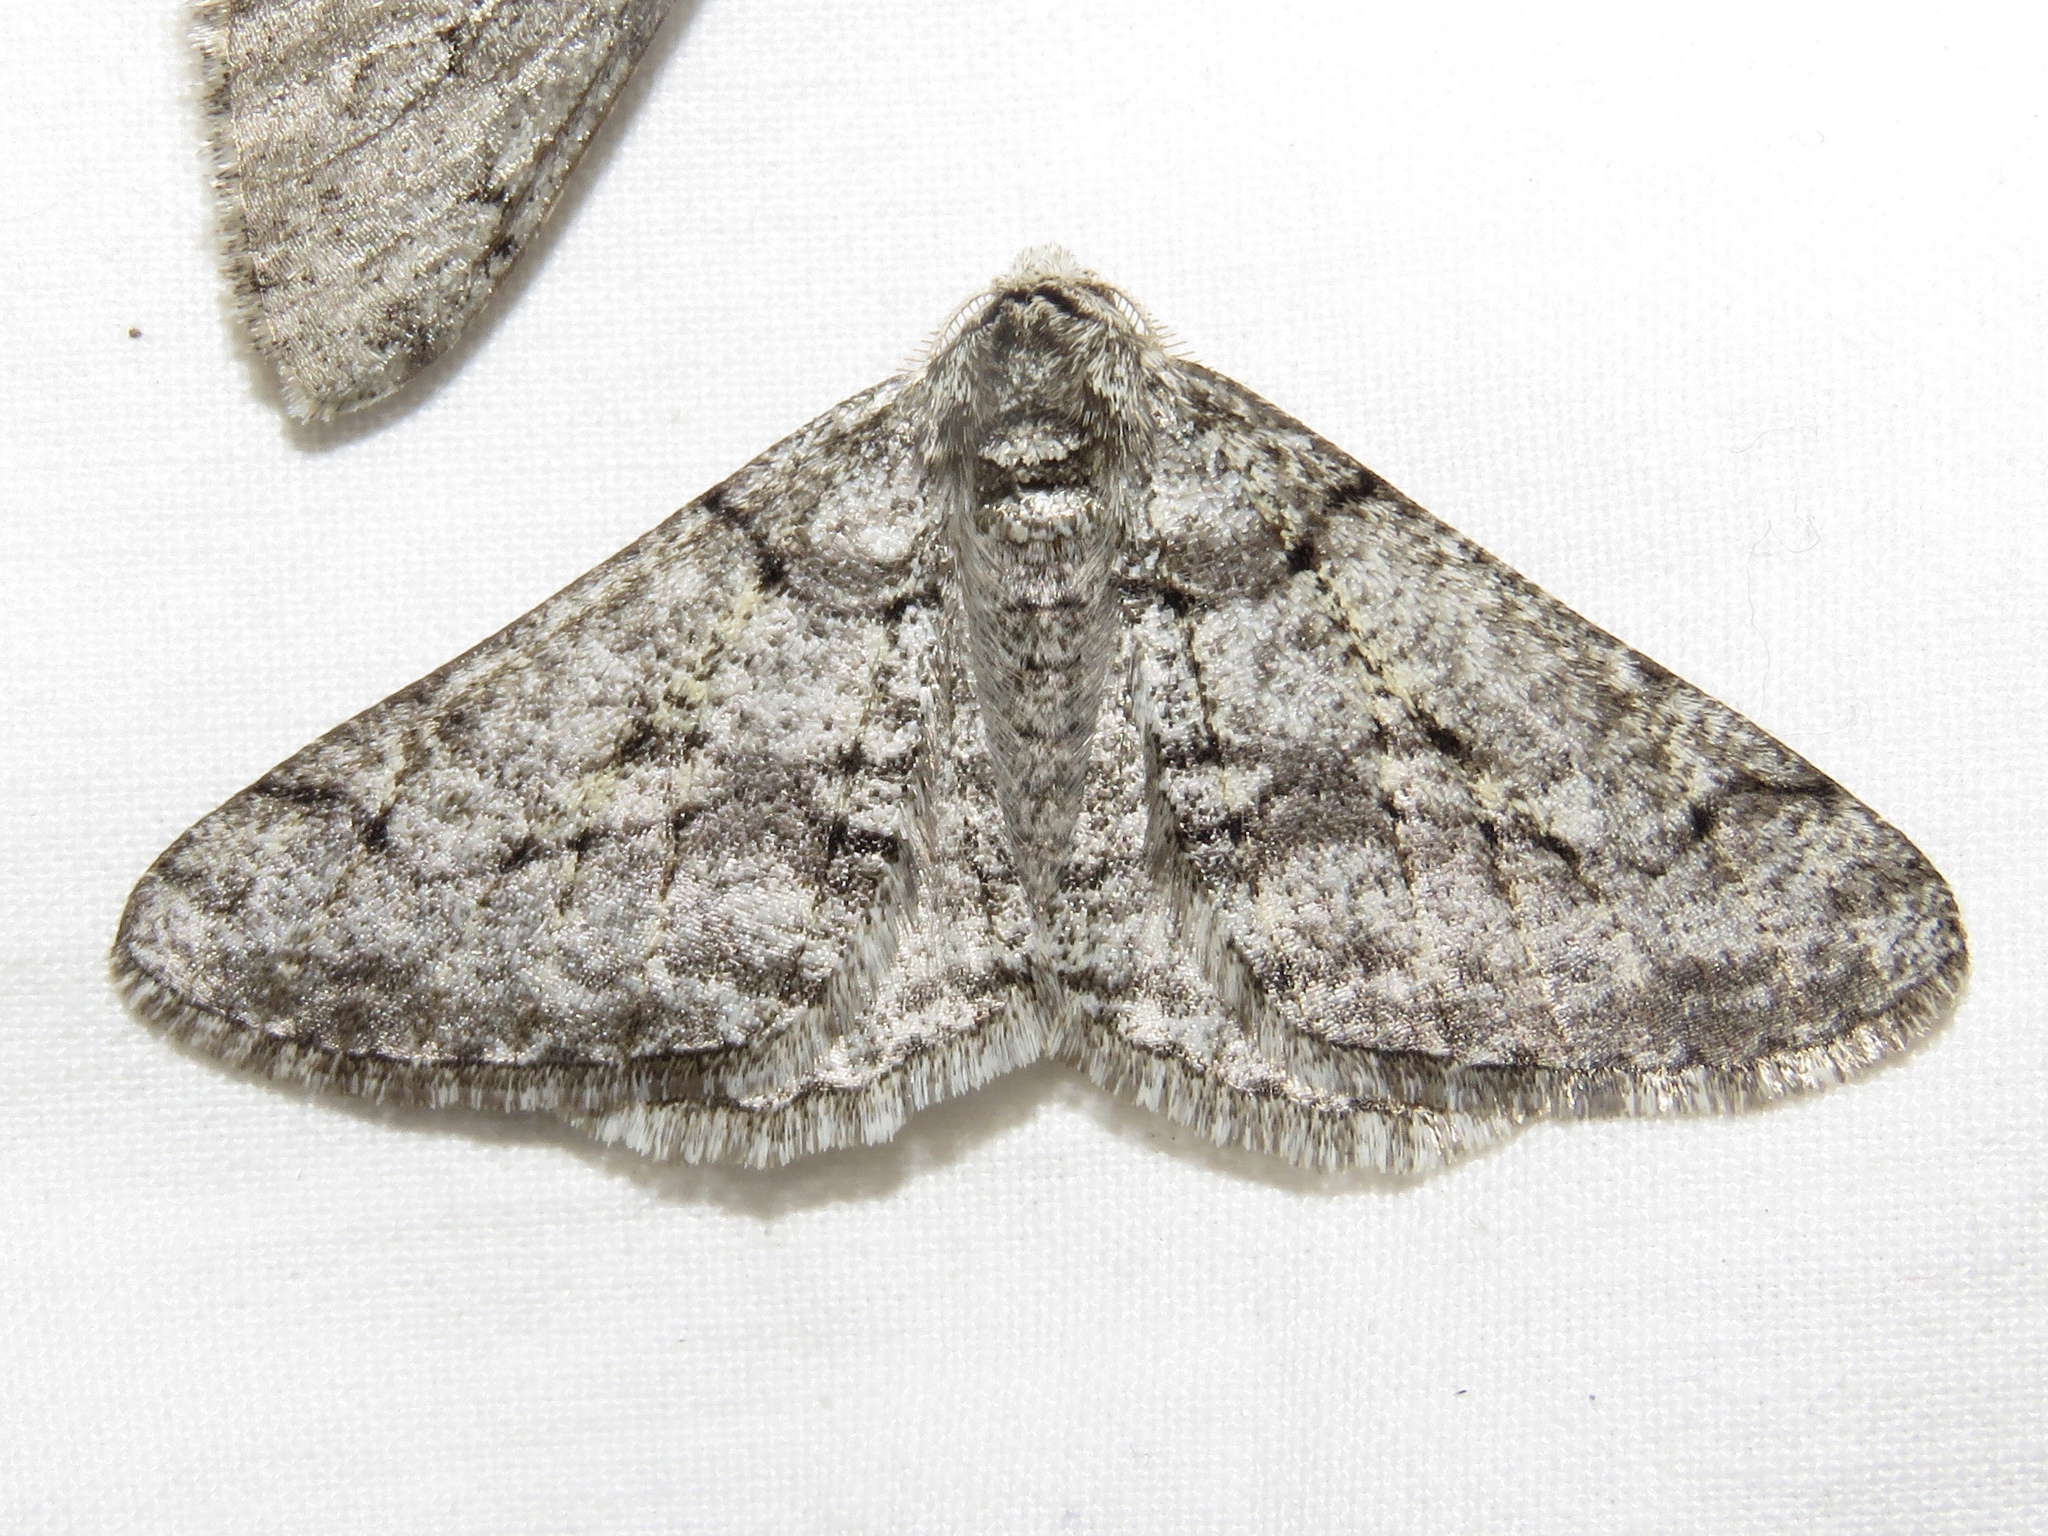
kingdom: Animalia
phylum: Arthropoda
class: Insecta
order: Lepidoptera
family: Geometridae
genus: Phigalia
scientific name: Phigalia titea
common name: Spiny looper
